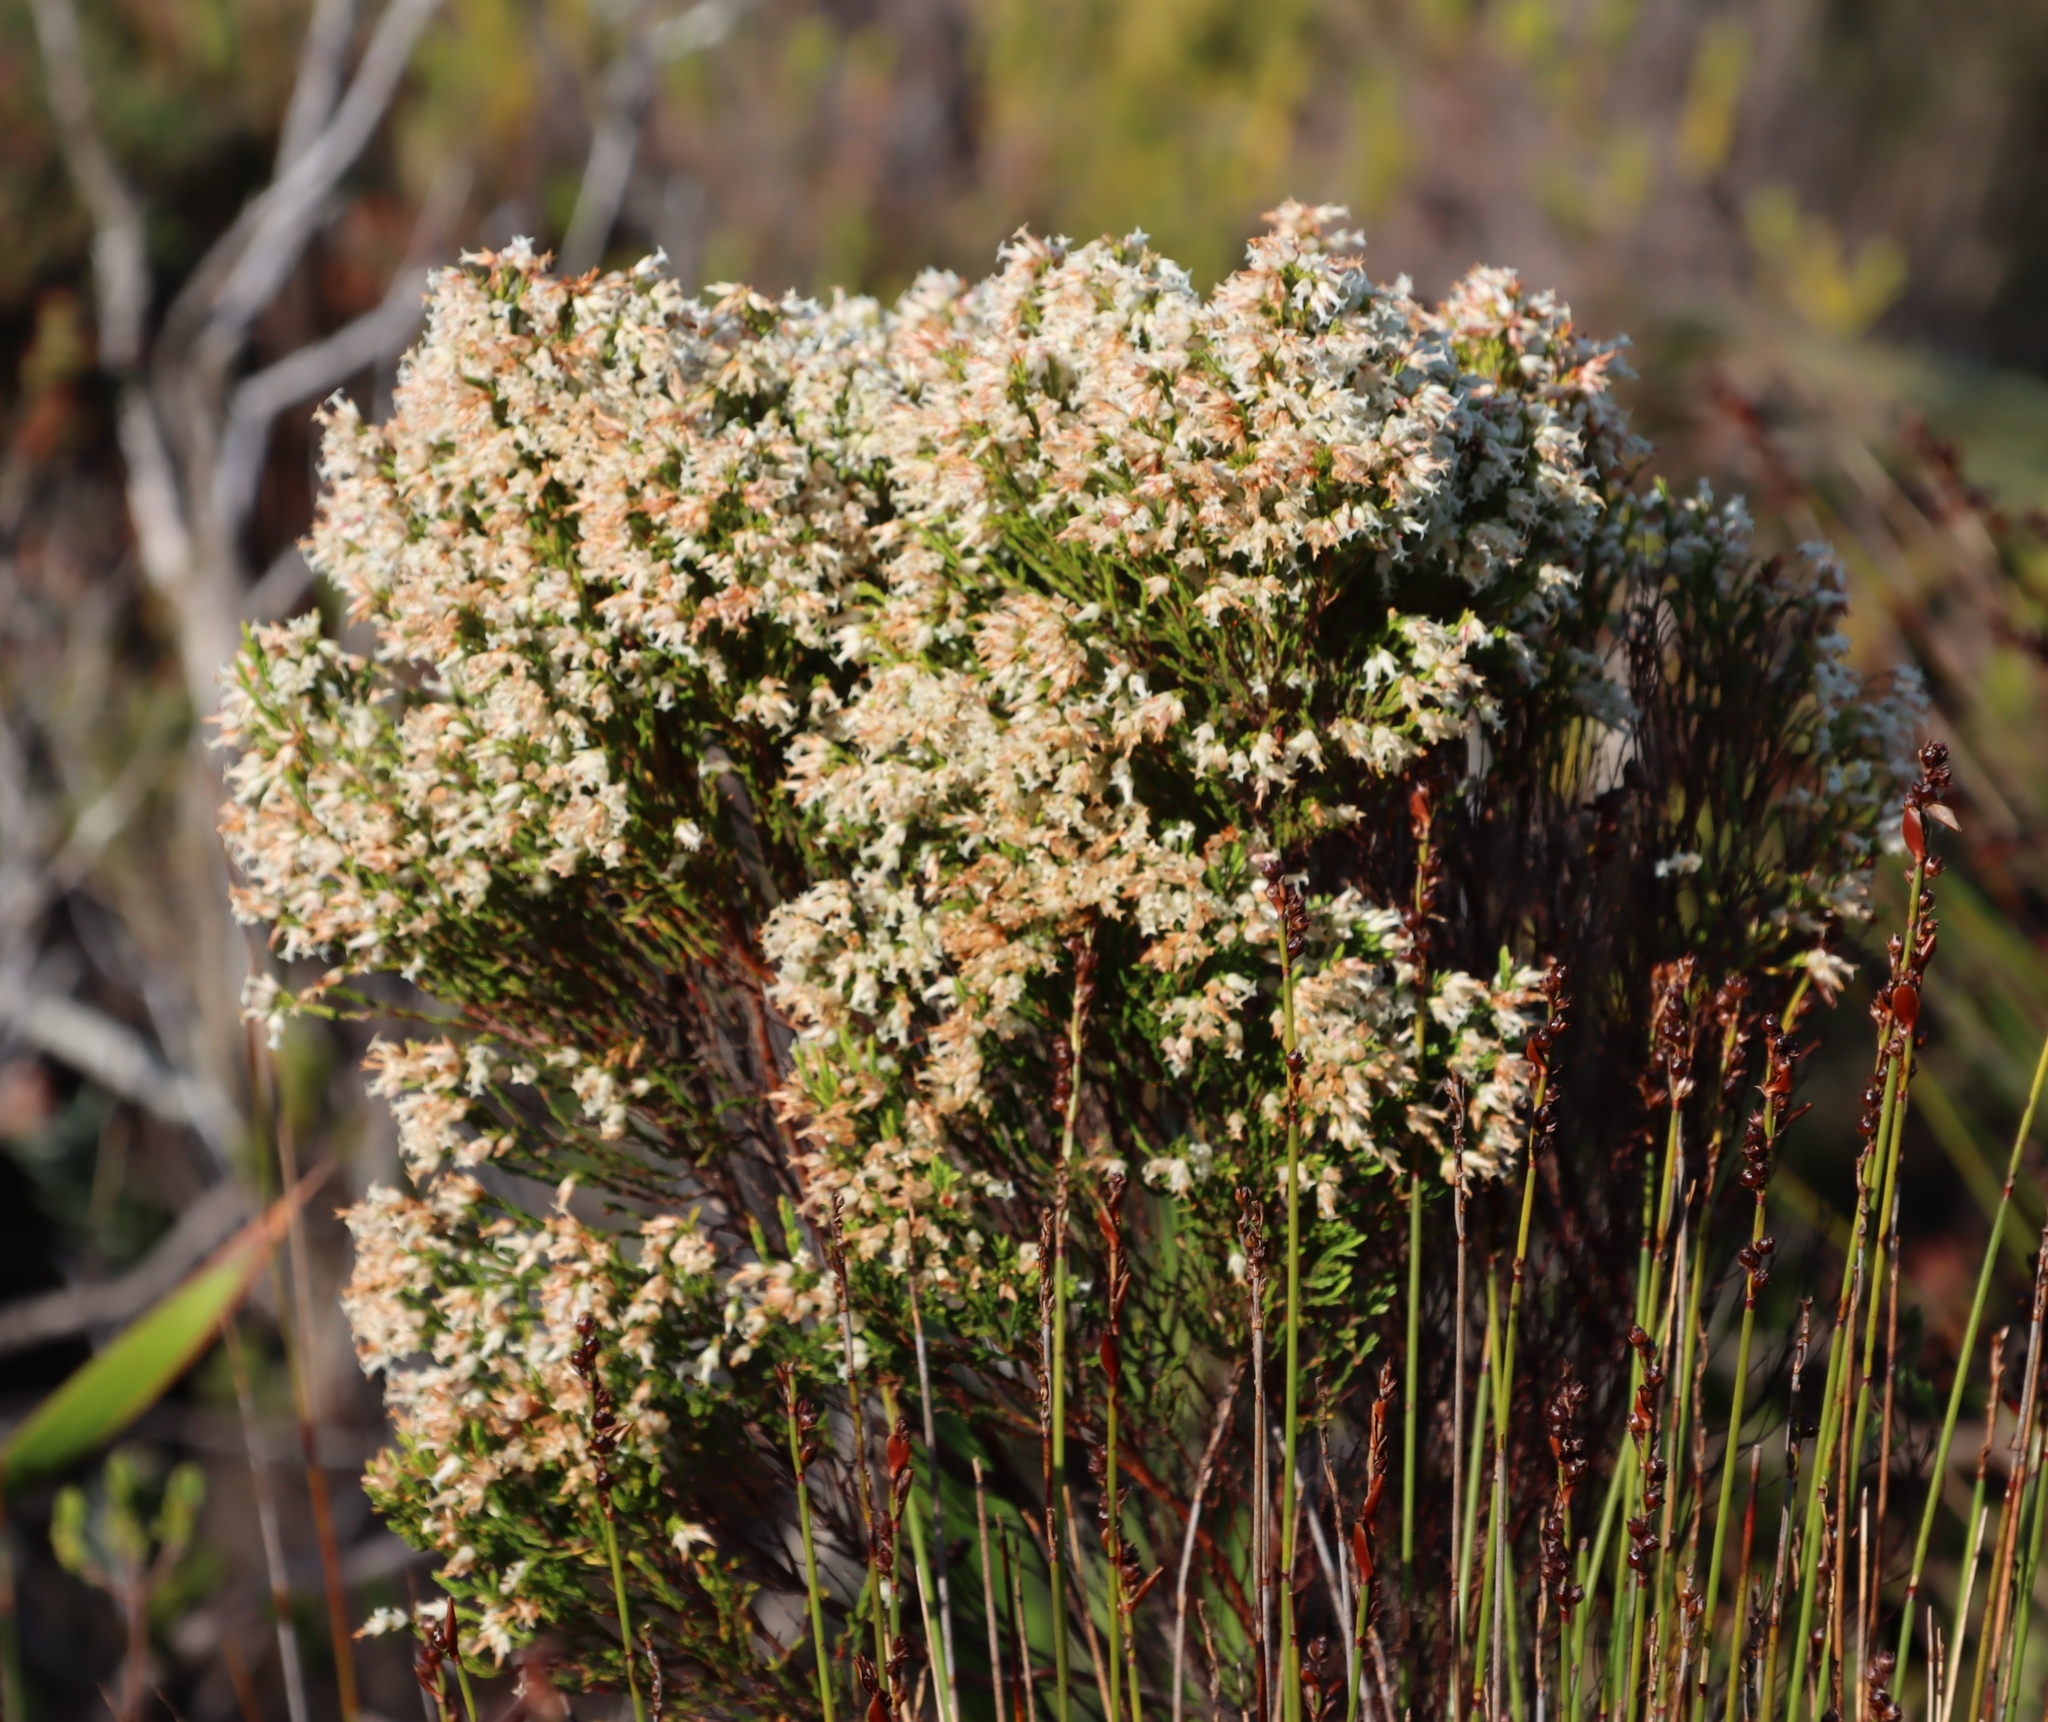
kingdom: Plantae
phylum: Tracheophyta
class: Magnoliopsida
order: Ericales
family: Ericaceae
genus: Erica
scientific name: Erica lutea
